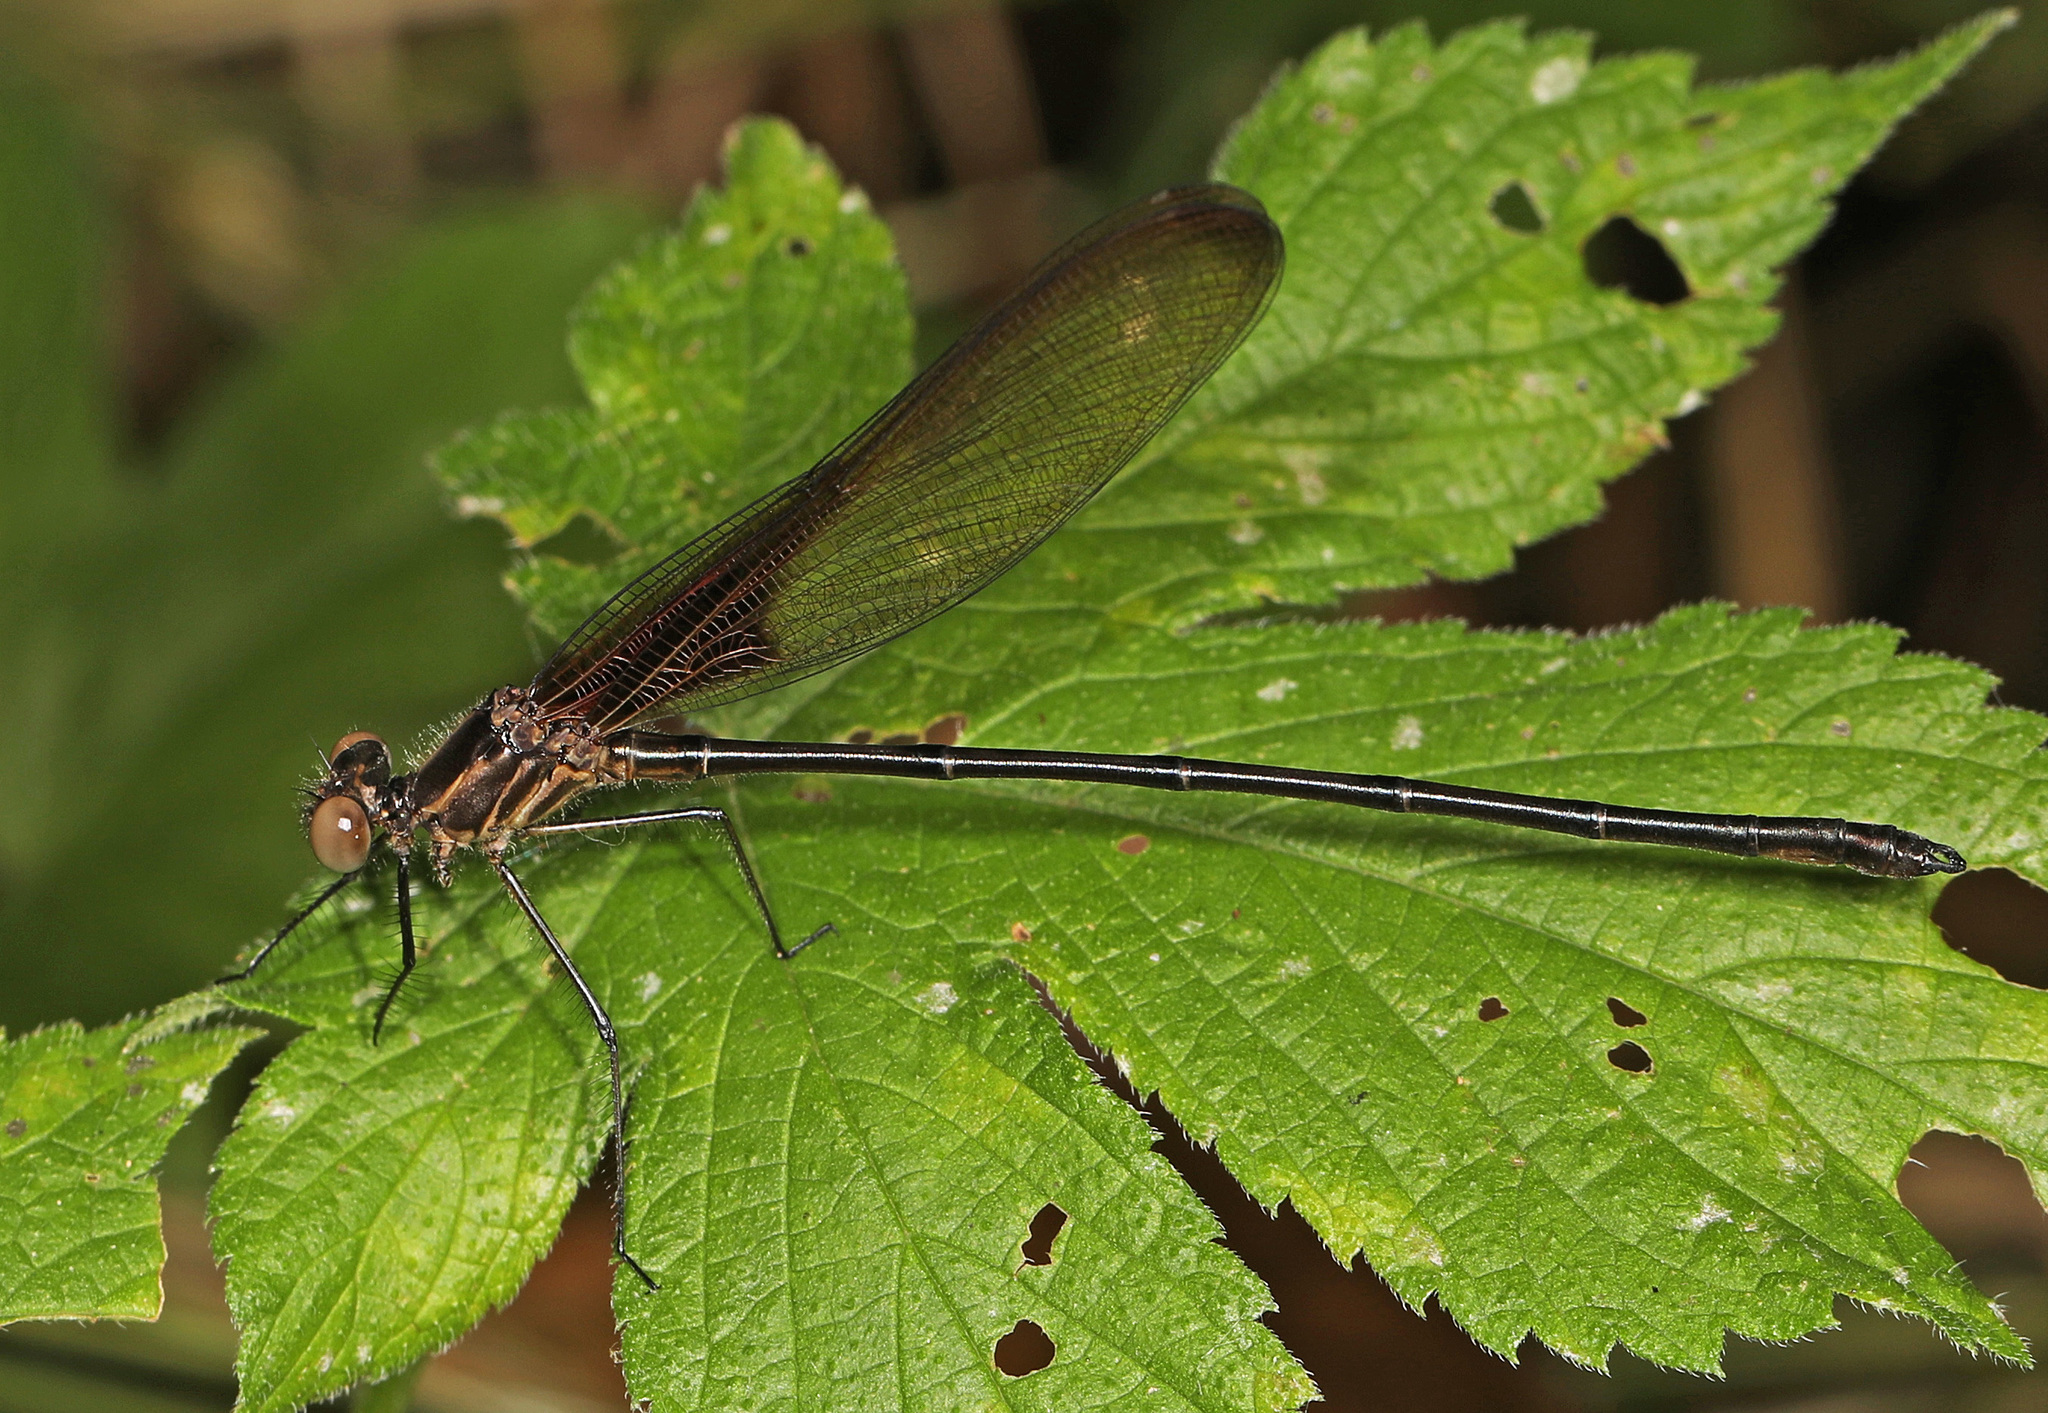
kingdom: Animalia
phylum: Arthropoda
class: Insecta
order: Odonata
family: Calopterygidae
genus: Hetaerina
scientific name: Hetaerina titia
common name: Smoky rubyspot
